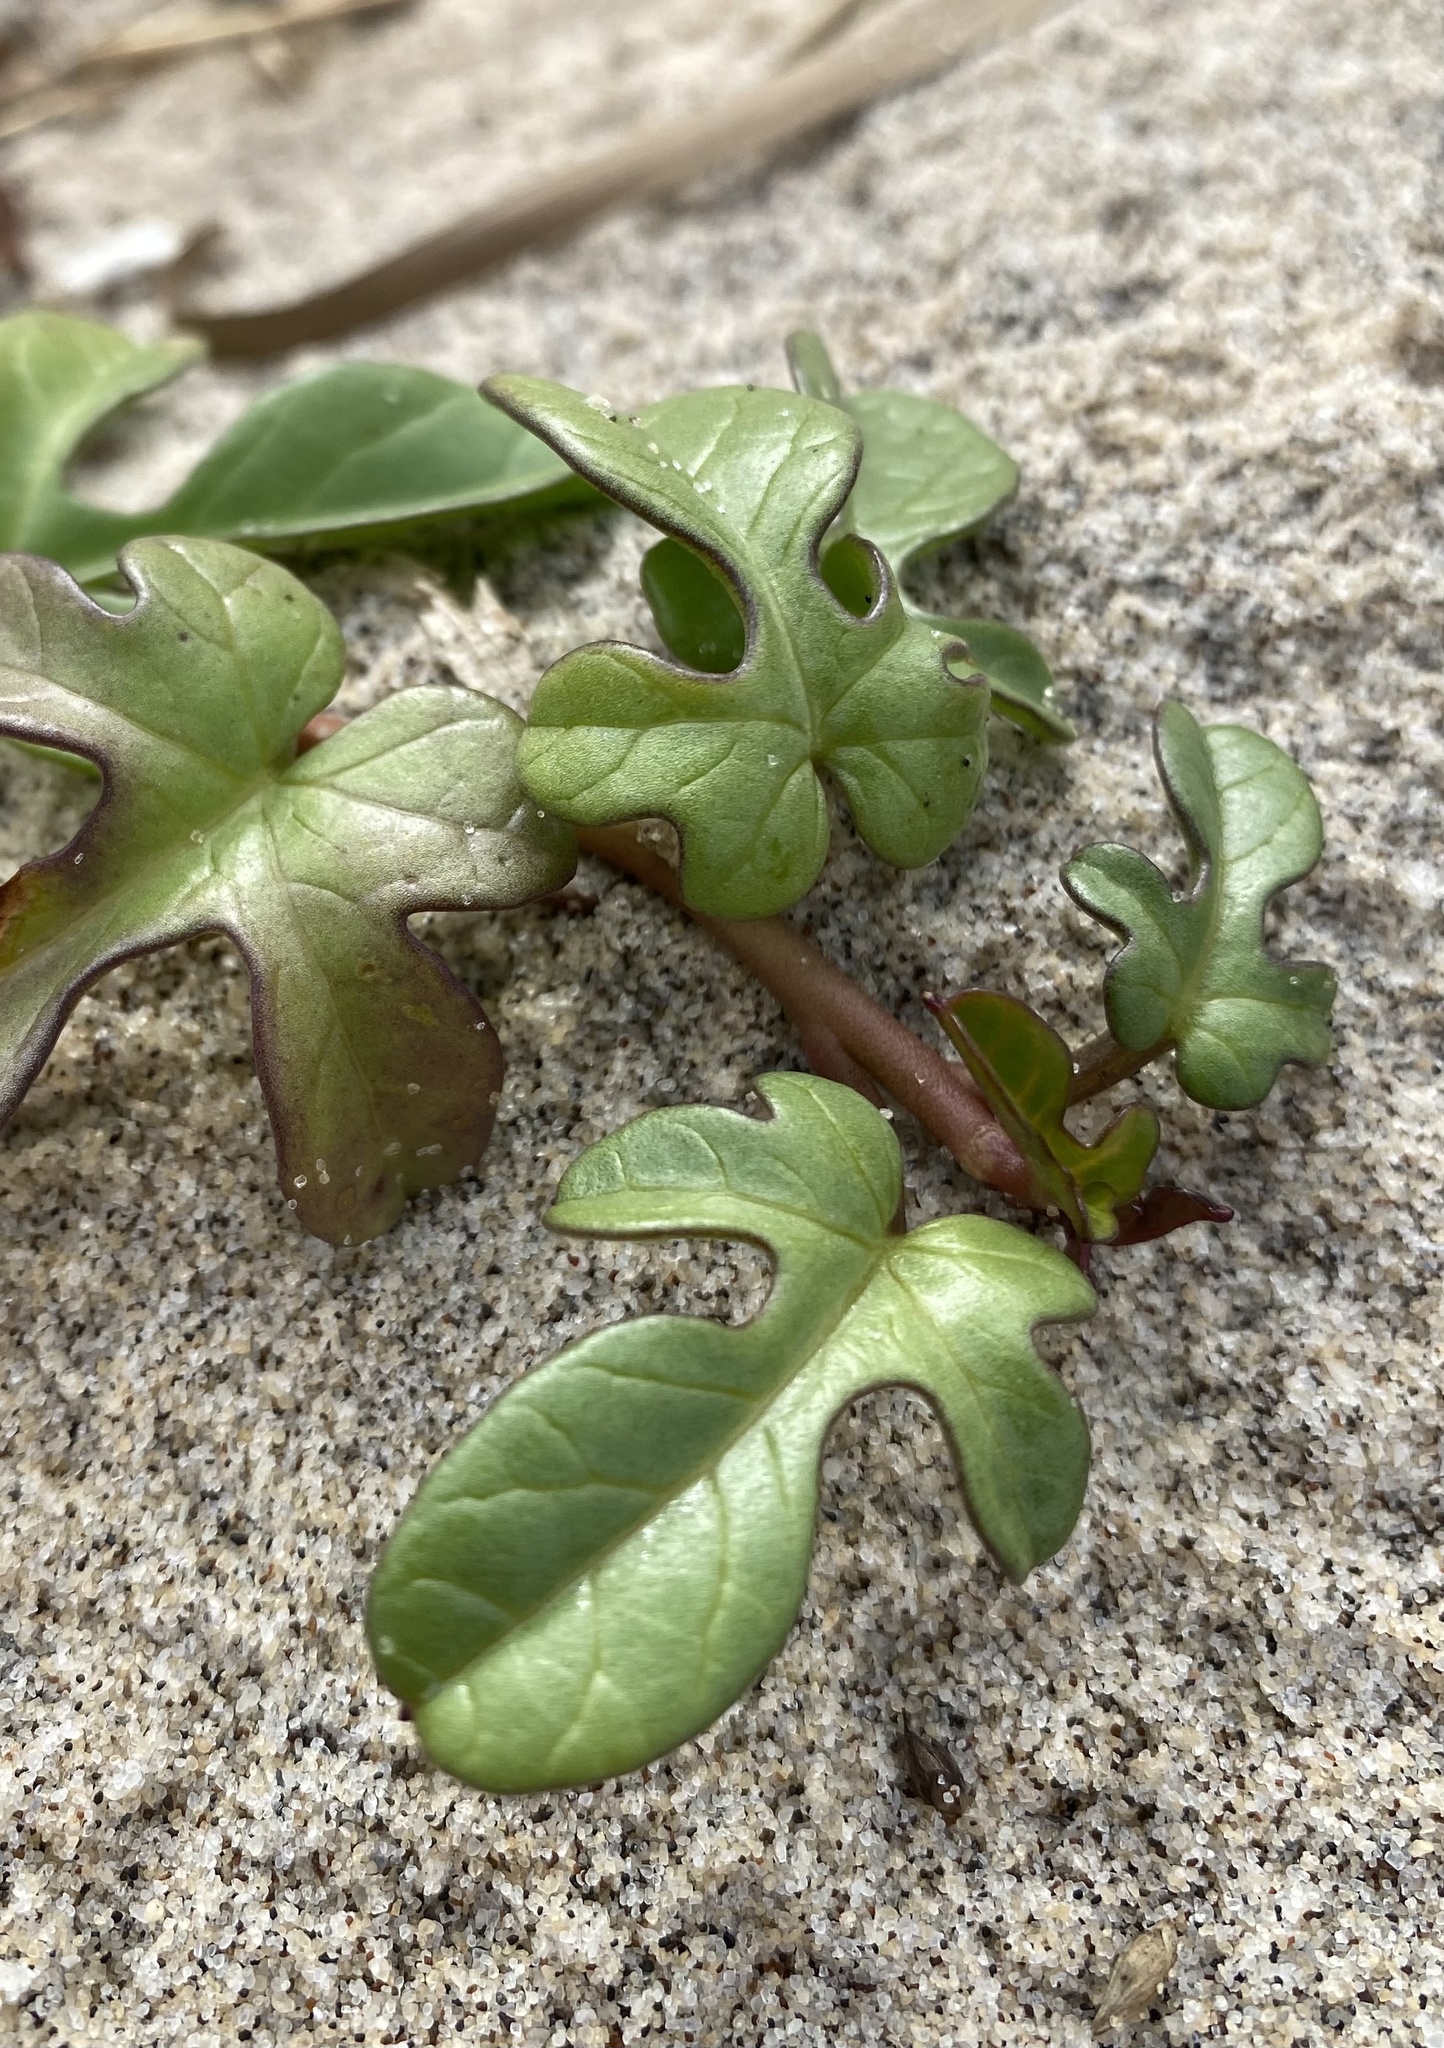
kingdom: Plantae
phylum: Tracheophyta
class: Magnoliopsida
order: Solanales
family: Convolvulaceae
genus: Ipomoea
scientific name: Ipomoea imperati
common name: Fiddle-leaf morning-glory
